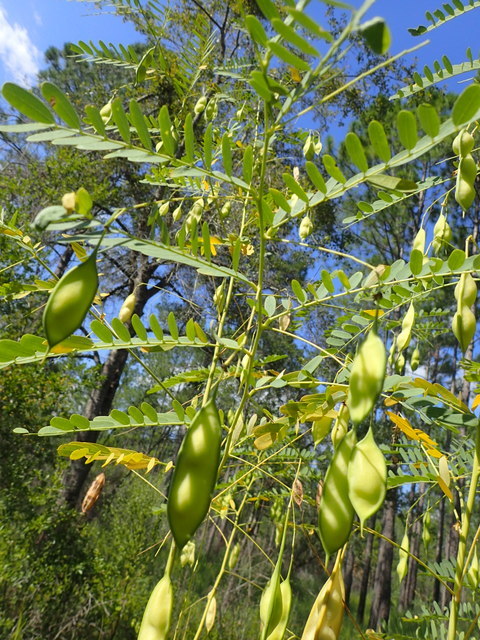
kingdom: Plantae
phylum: Tracheophyta
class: Magnoliopsida
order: Fabales
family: Fabaceae
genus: Sesbania
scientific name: Sesbania vesicaria
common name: Bagpod
